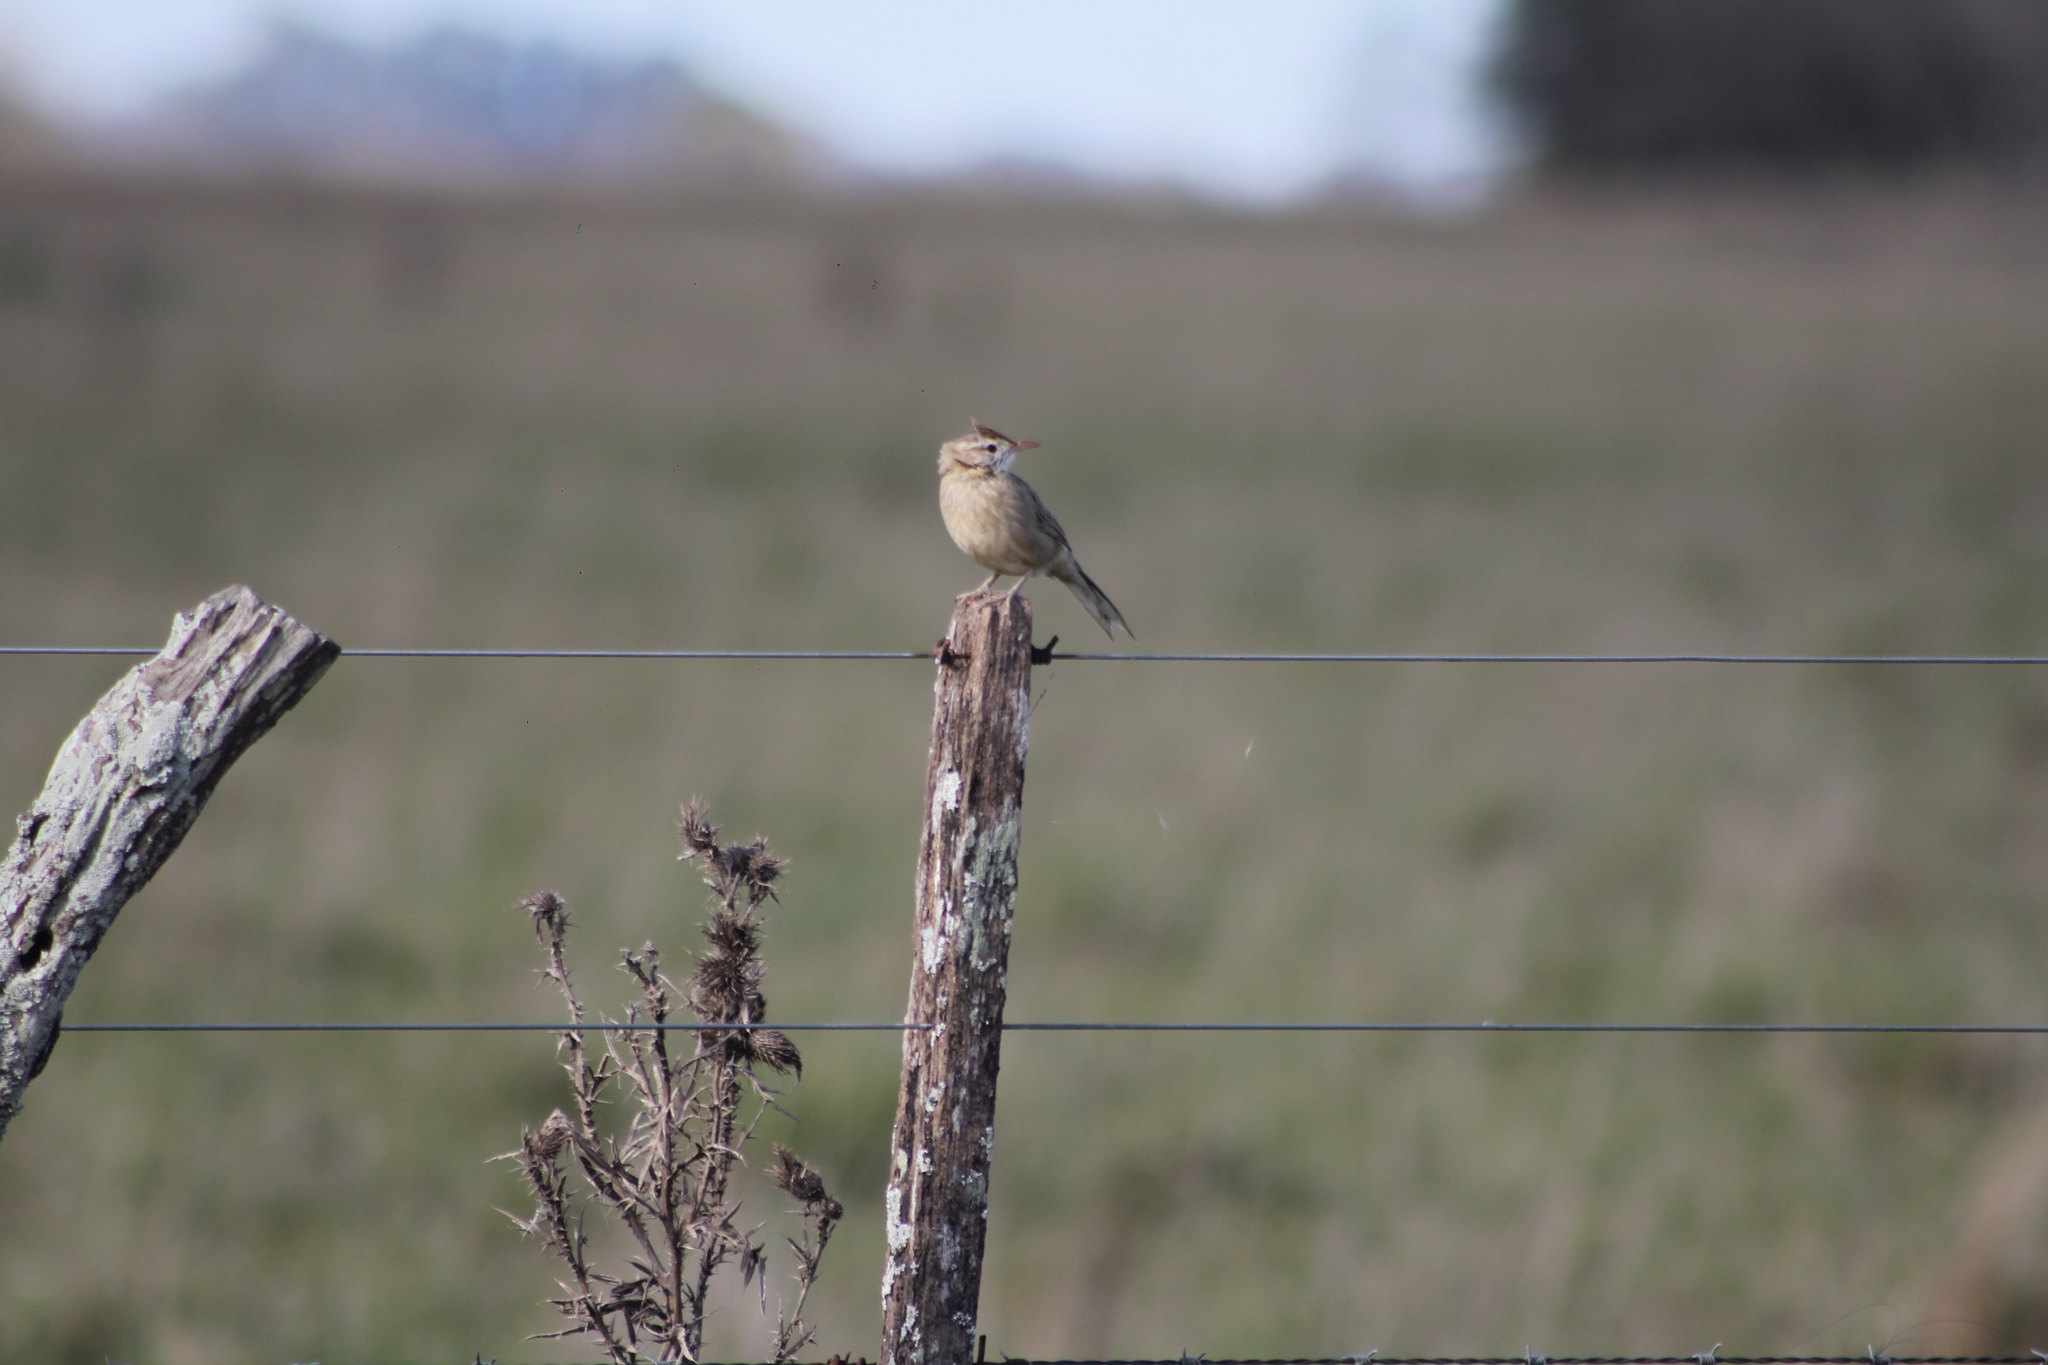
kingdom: Animalia
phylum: Chordata
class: Aves
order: Passeriformes
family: Furnariidae
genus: Anumbius
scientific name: Anumbius annumbi
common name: Firewood-gatherer
